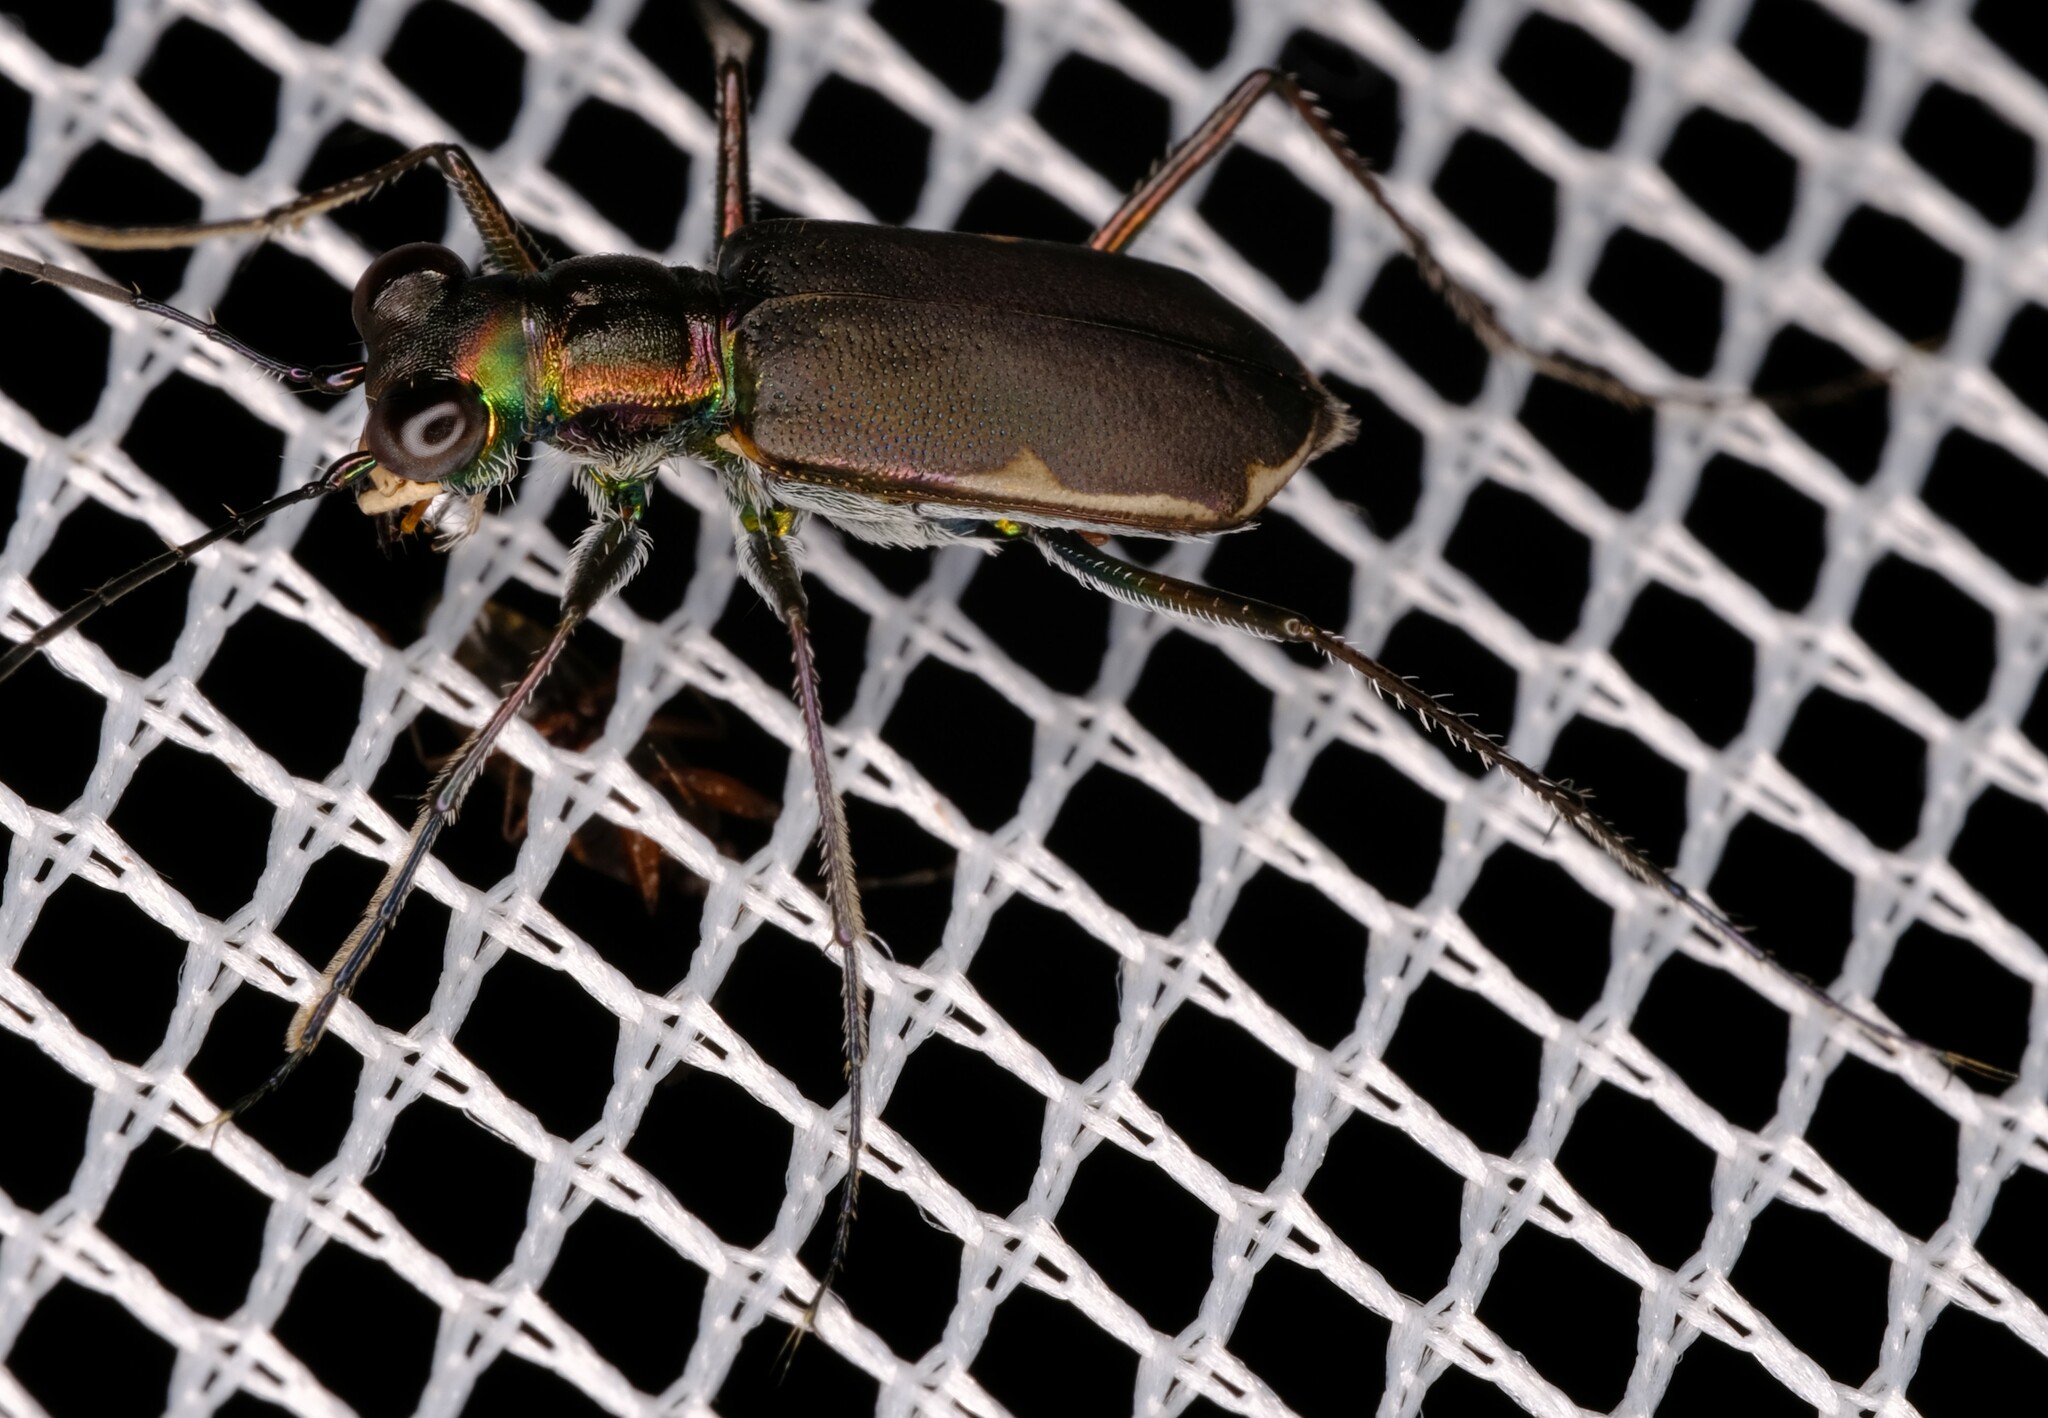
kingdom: Animalia
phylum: Arthropoda
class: Insecta
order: Coleoptera
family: Carabidae
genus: Myriochila
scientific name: Myriochila semicincta
